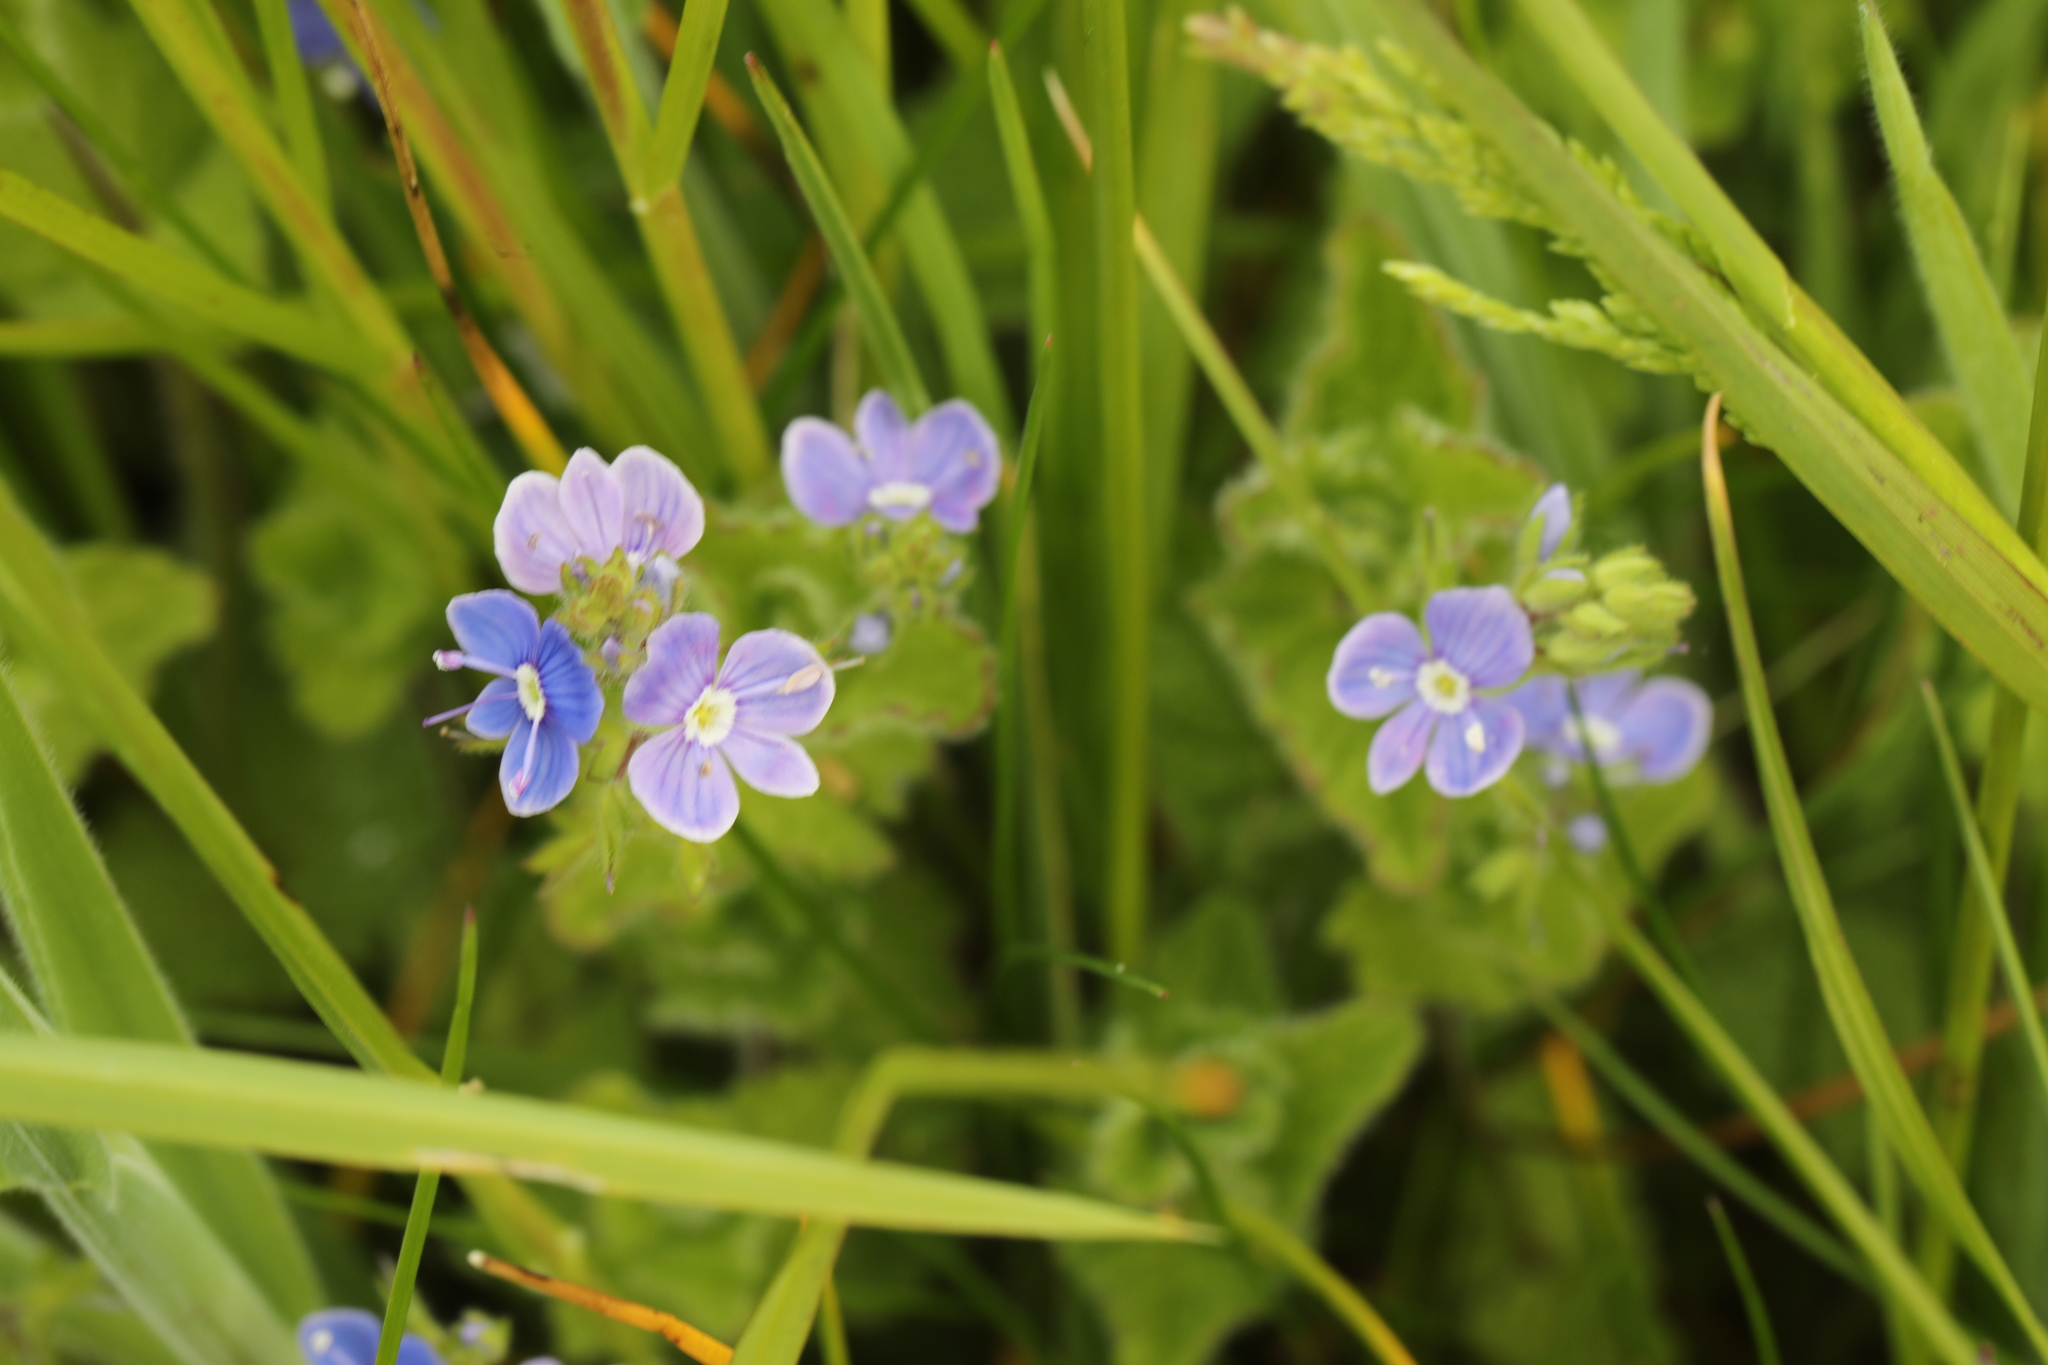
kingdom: Plantae
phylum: Tracheophyta
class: Magnoliopsida
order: Lamiales
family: Plantaginaceae
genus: Veronica
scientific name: Veronica chamaedrys
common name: Germander speedwell
